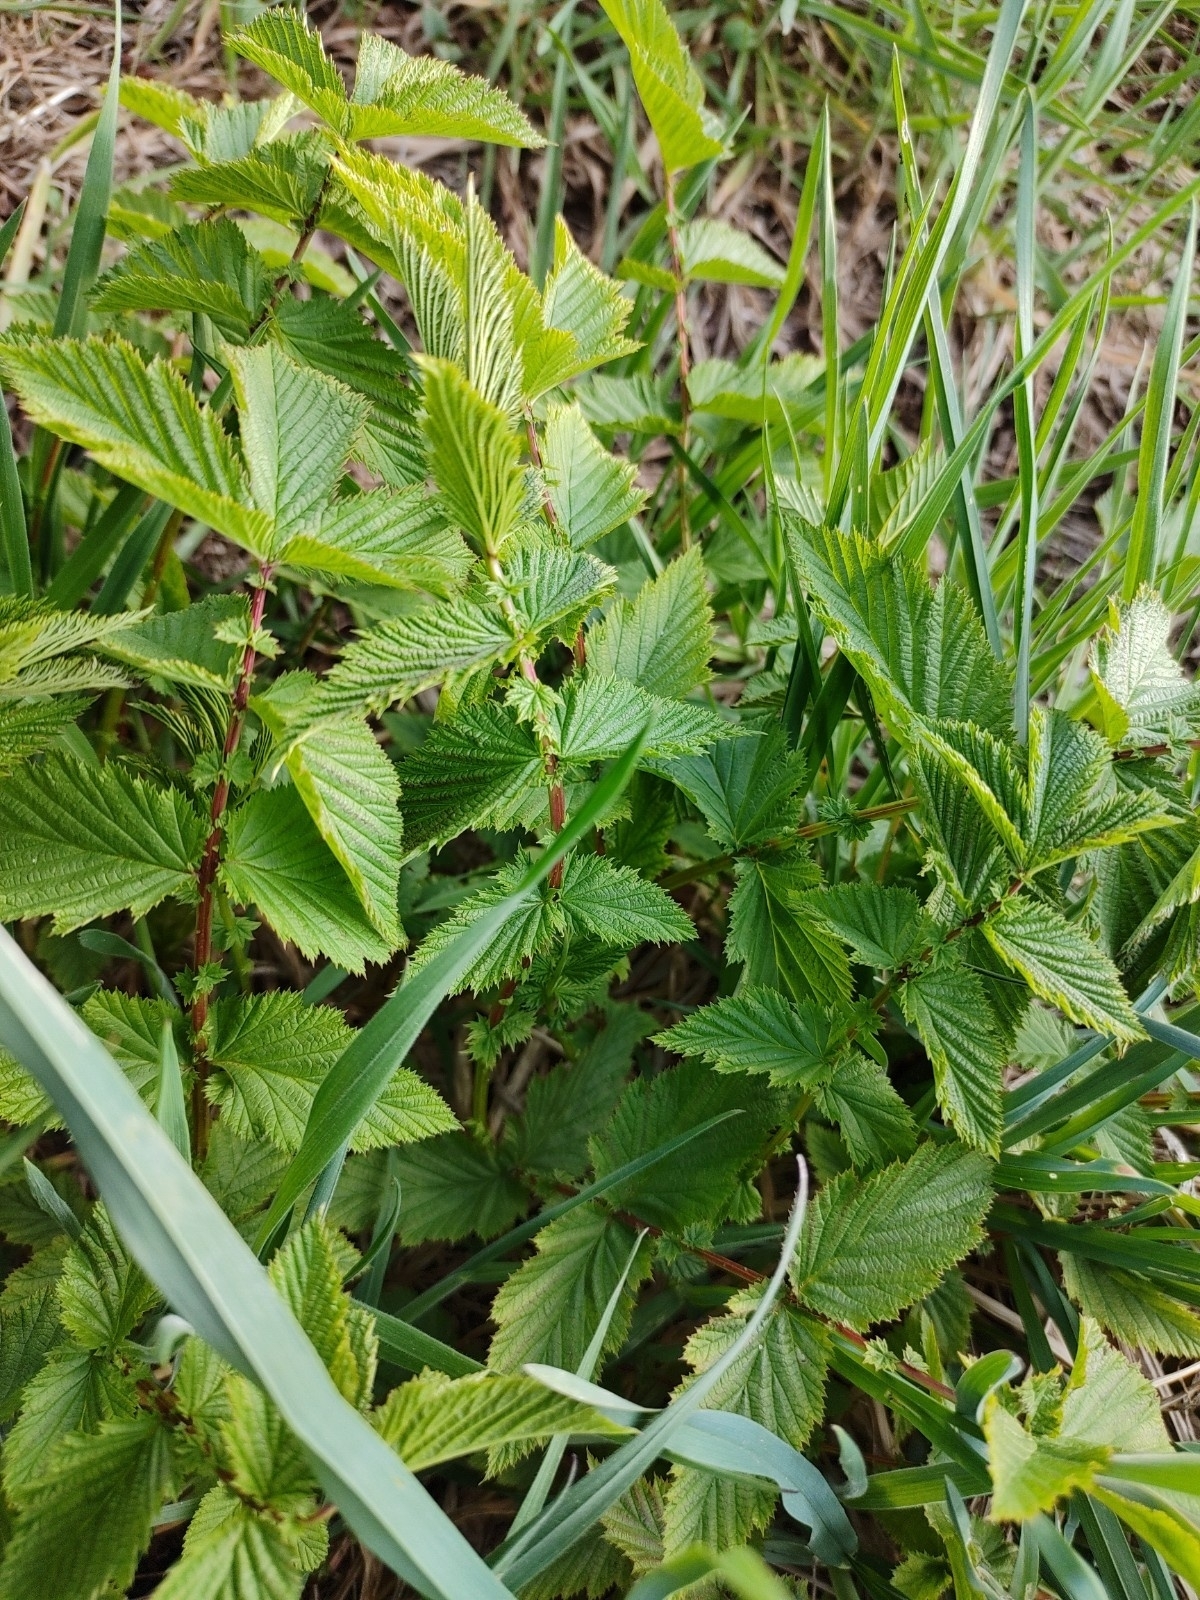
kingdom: Plantae
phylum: Tracheophyta
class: Magnoliopsida
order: Rosales
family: Rosaceae
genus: Filipendula
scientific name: Filipendula ulmaria
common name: Meadowsweet
